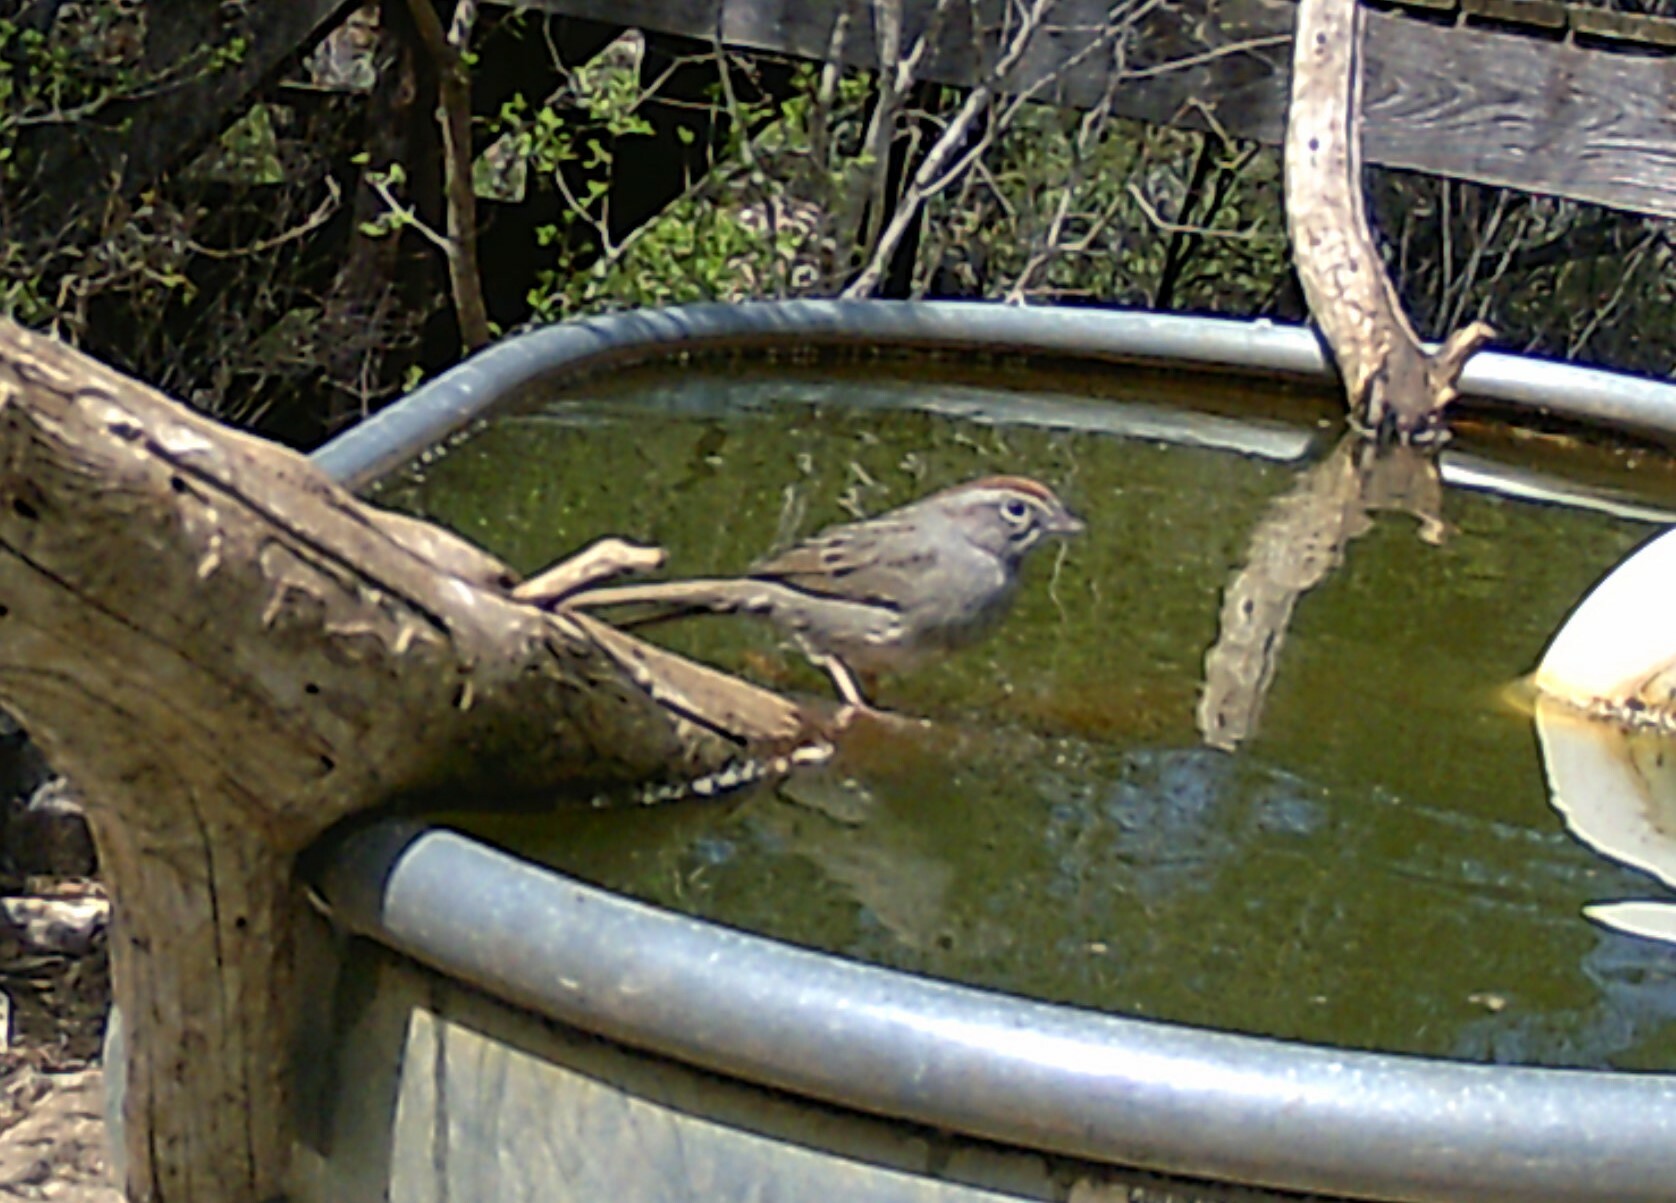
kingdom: Animalia
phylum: Chordata
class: Aves
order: Passeriformes
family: Passerellidae
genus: Aimophila
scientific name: Aimophila ruficeps
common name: Rufous-crowned sparrow
